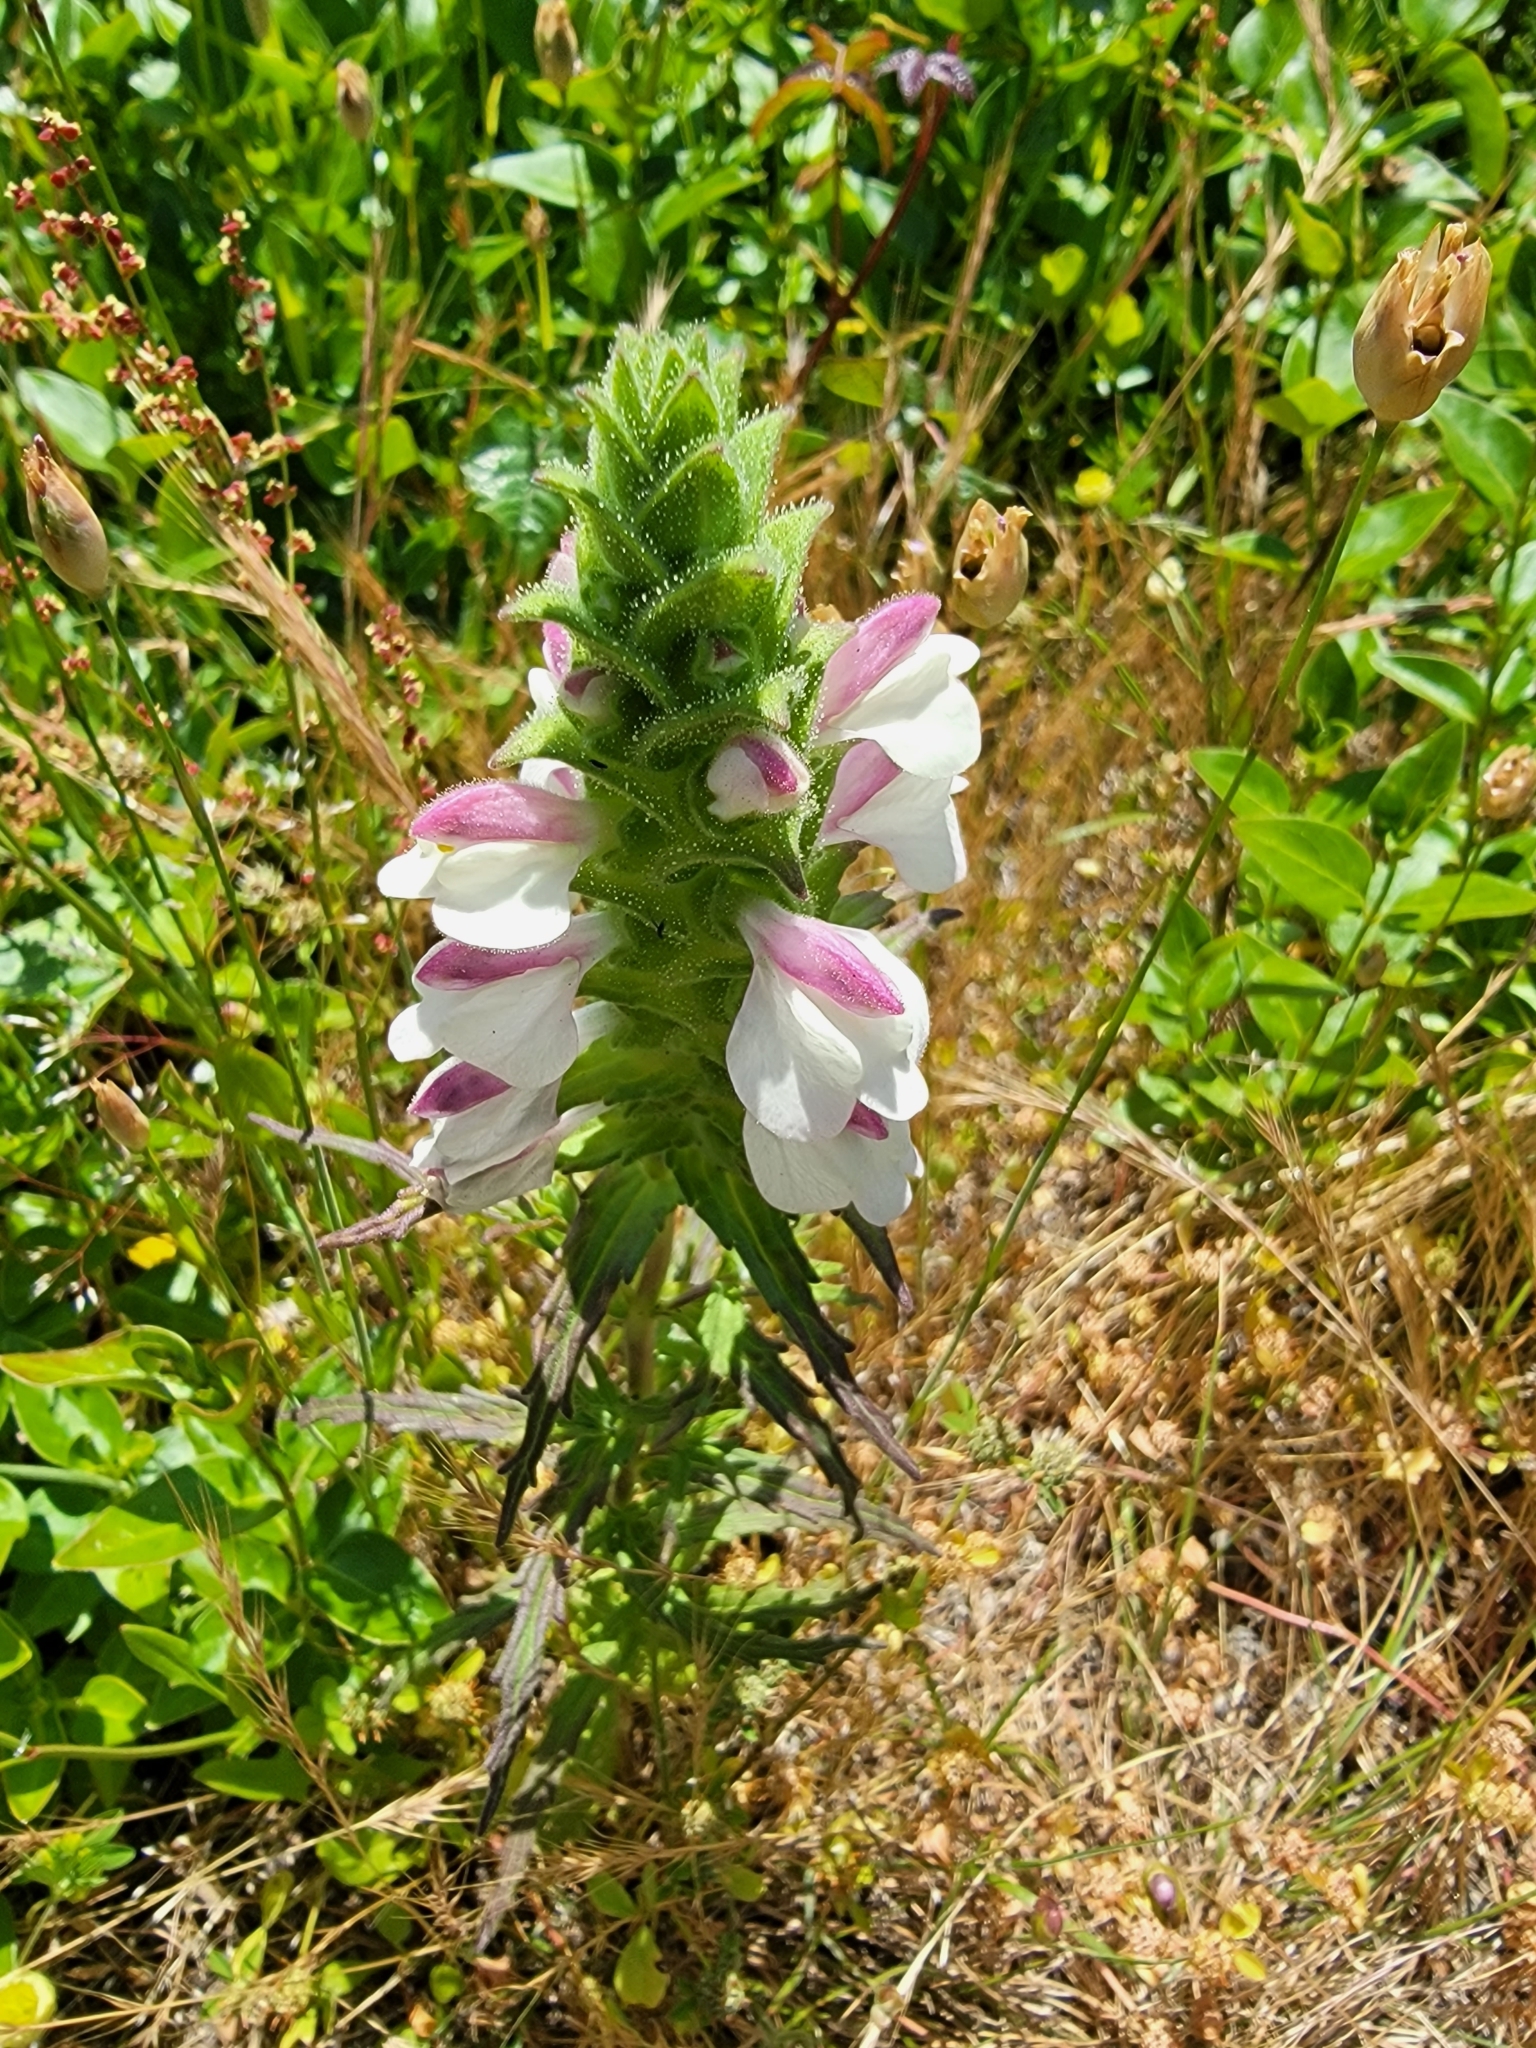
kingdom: Plantae
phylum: Tracheophyta
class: Magnoliopsida
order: Lamiales
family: Orobanchaceae
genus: Bellardia
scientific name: Bellardia trixago
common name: Mediterranean lineseed
